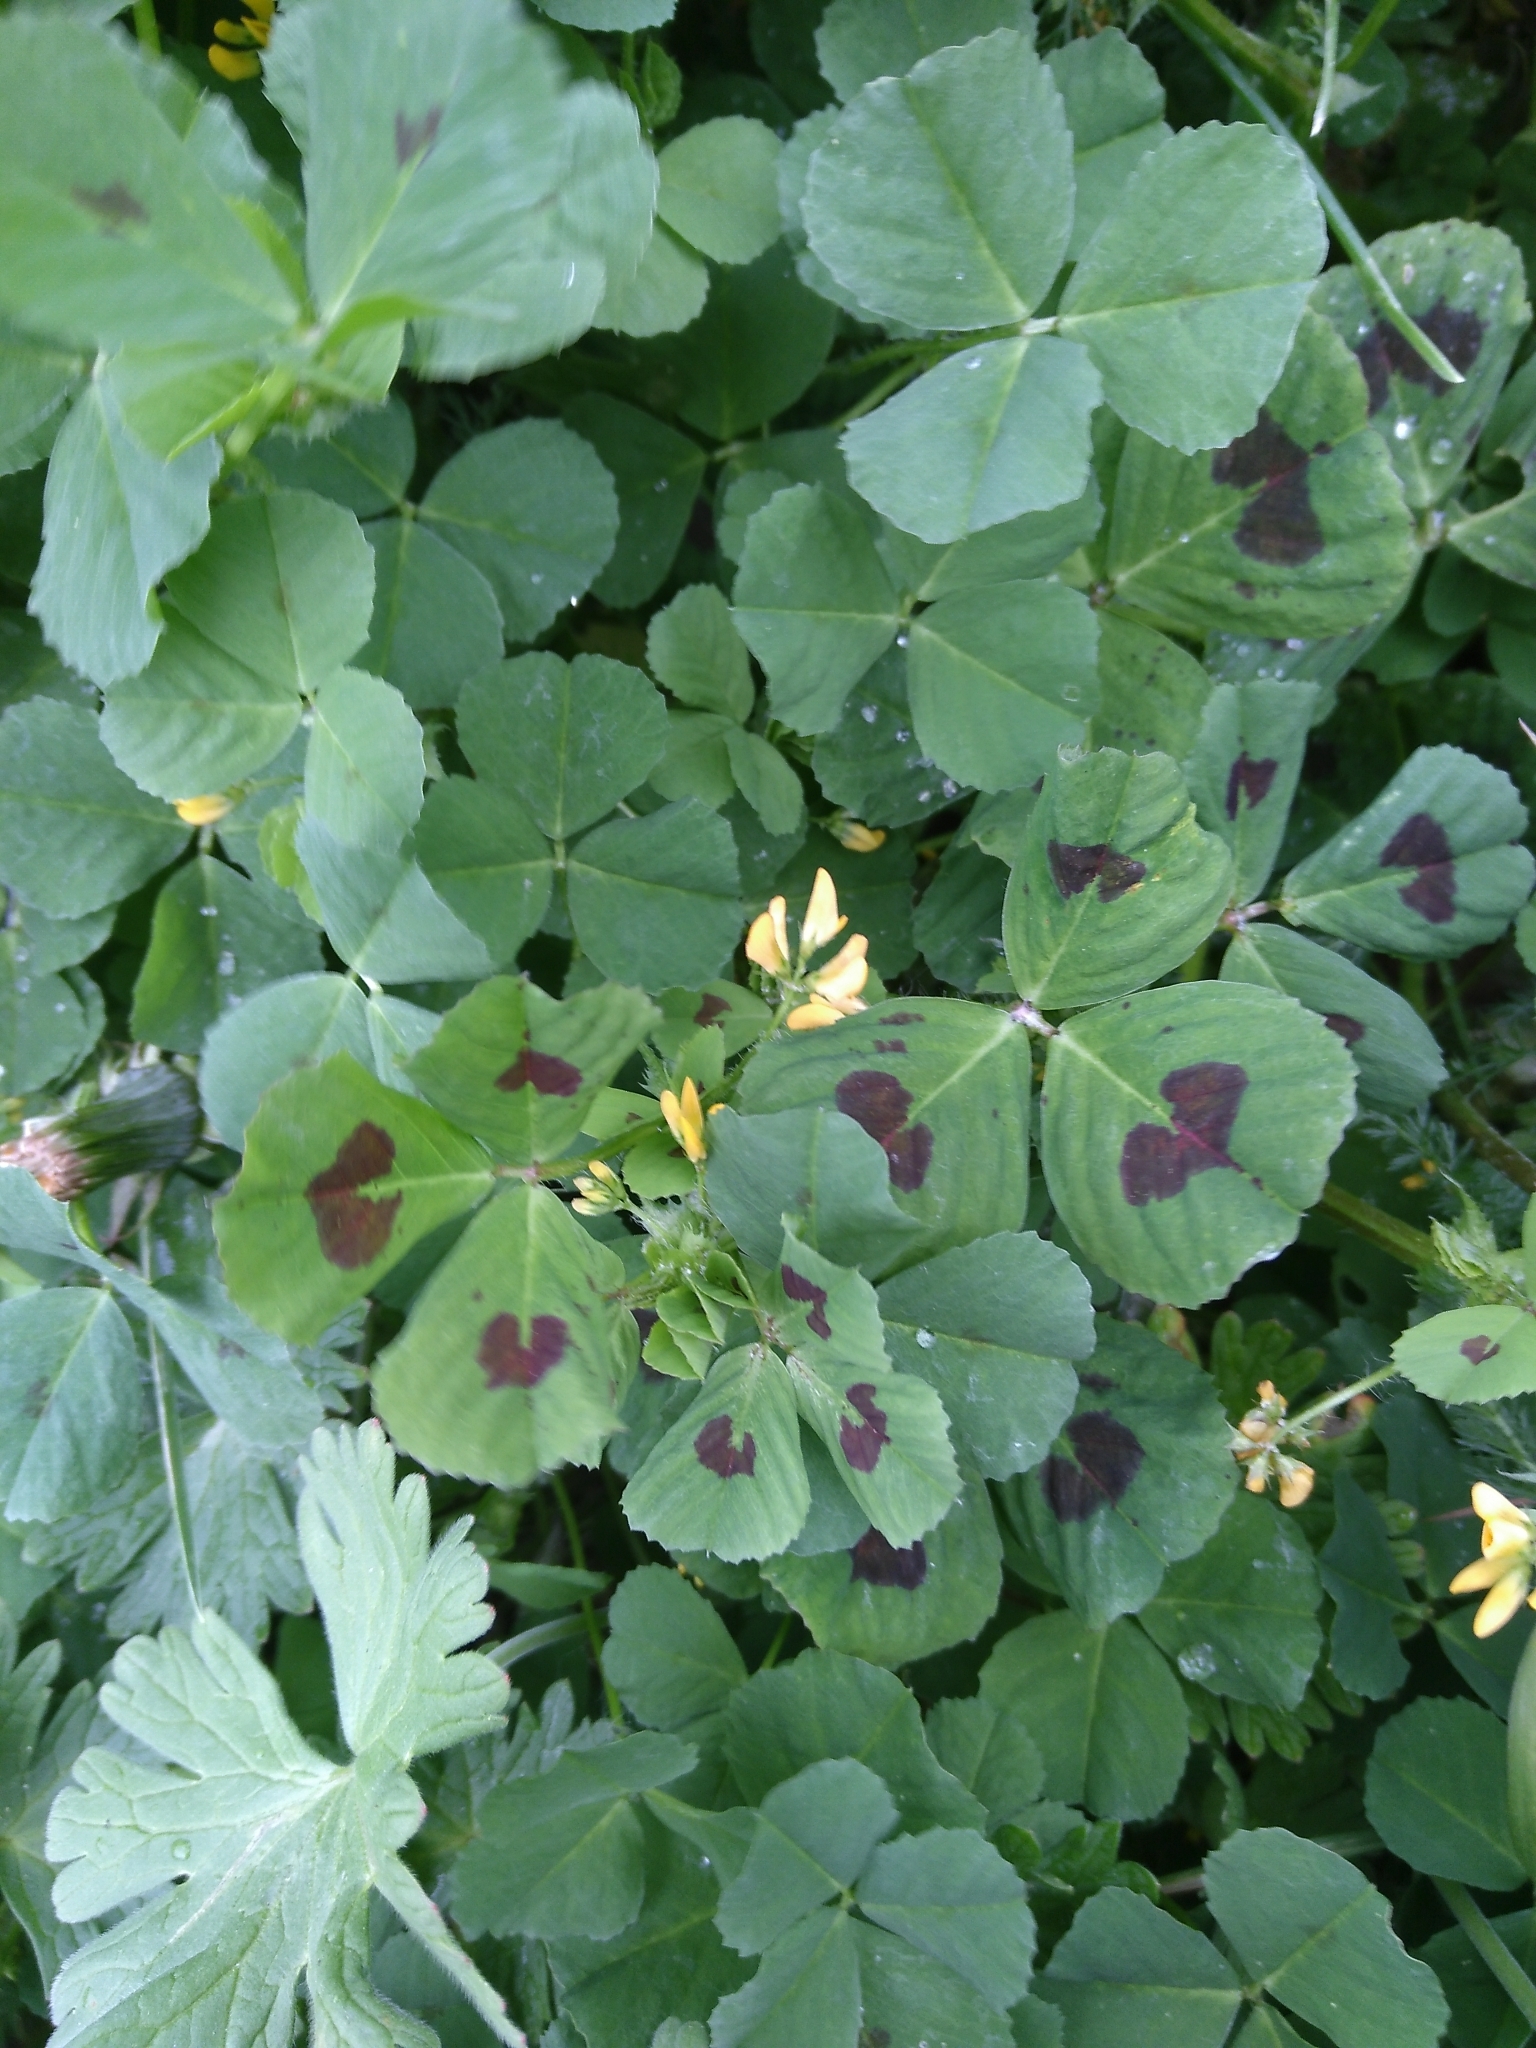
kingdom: Plantae
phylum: Tracheophyta
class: Magnoliopsida
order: Fabales
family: Fabaceae
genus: Medicago
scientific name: Medicago arabica
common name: Spotted medick
